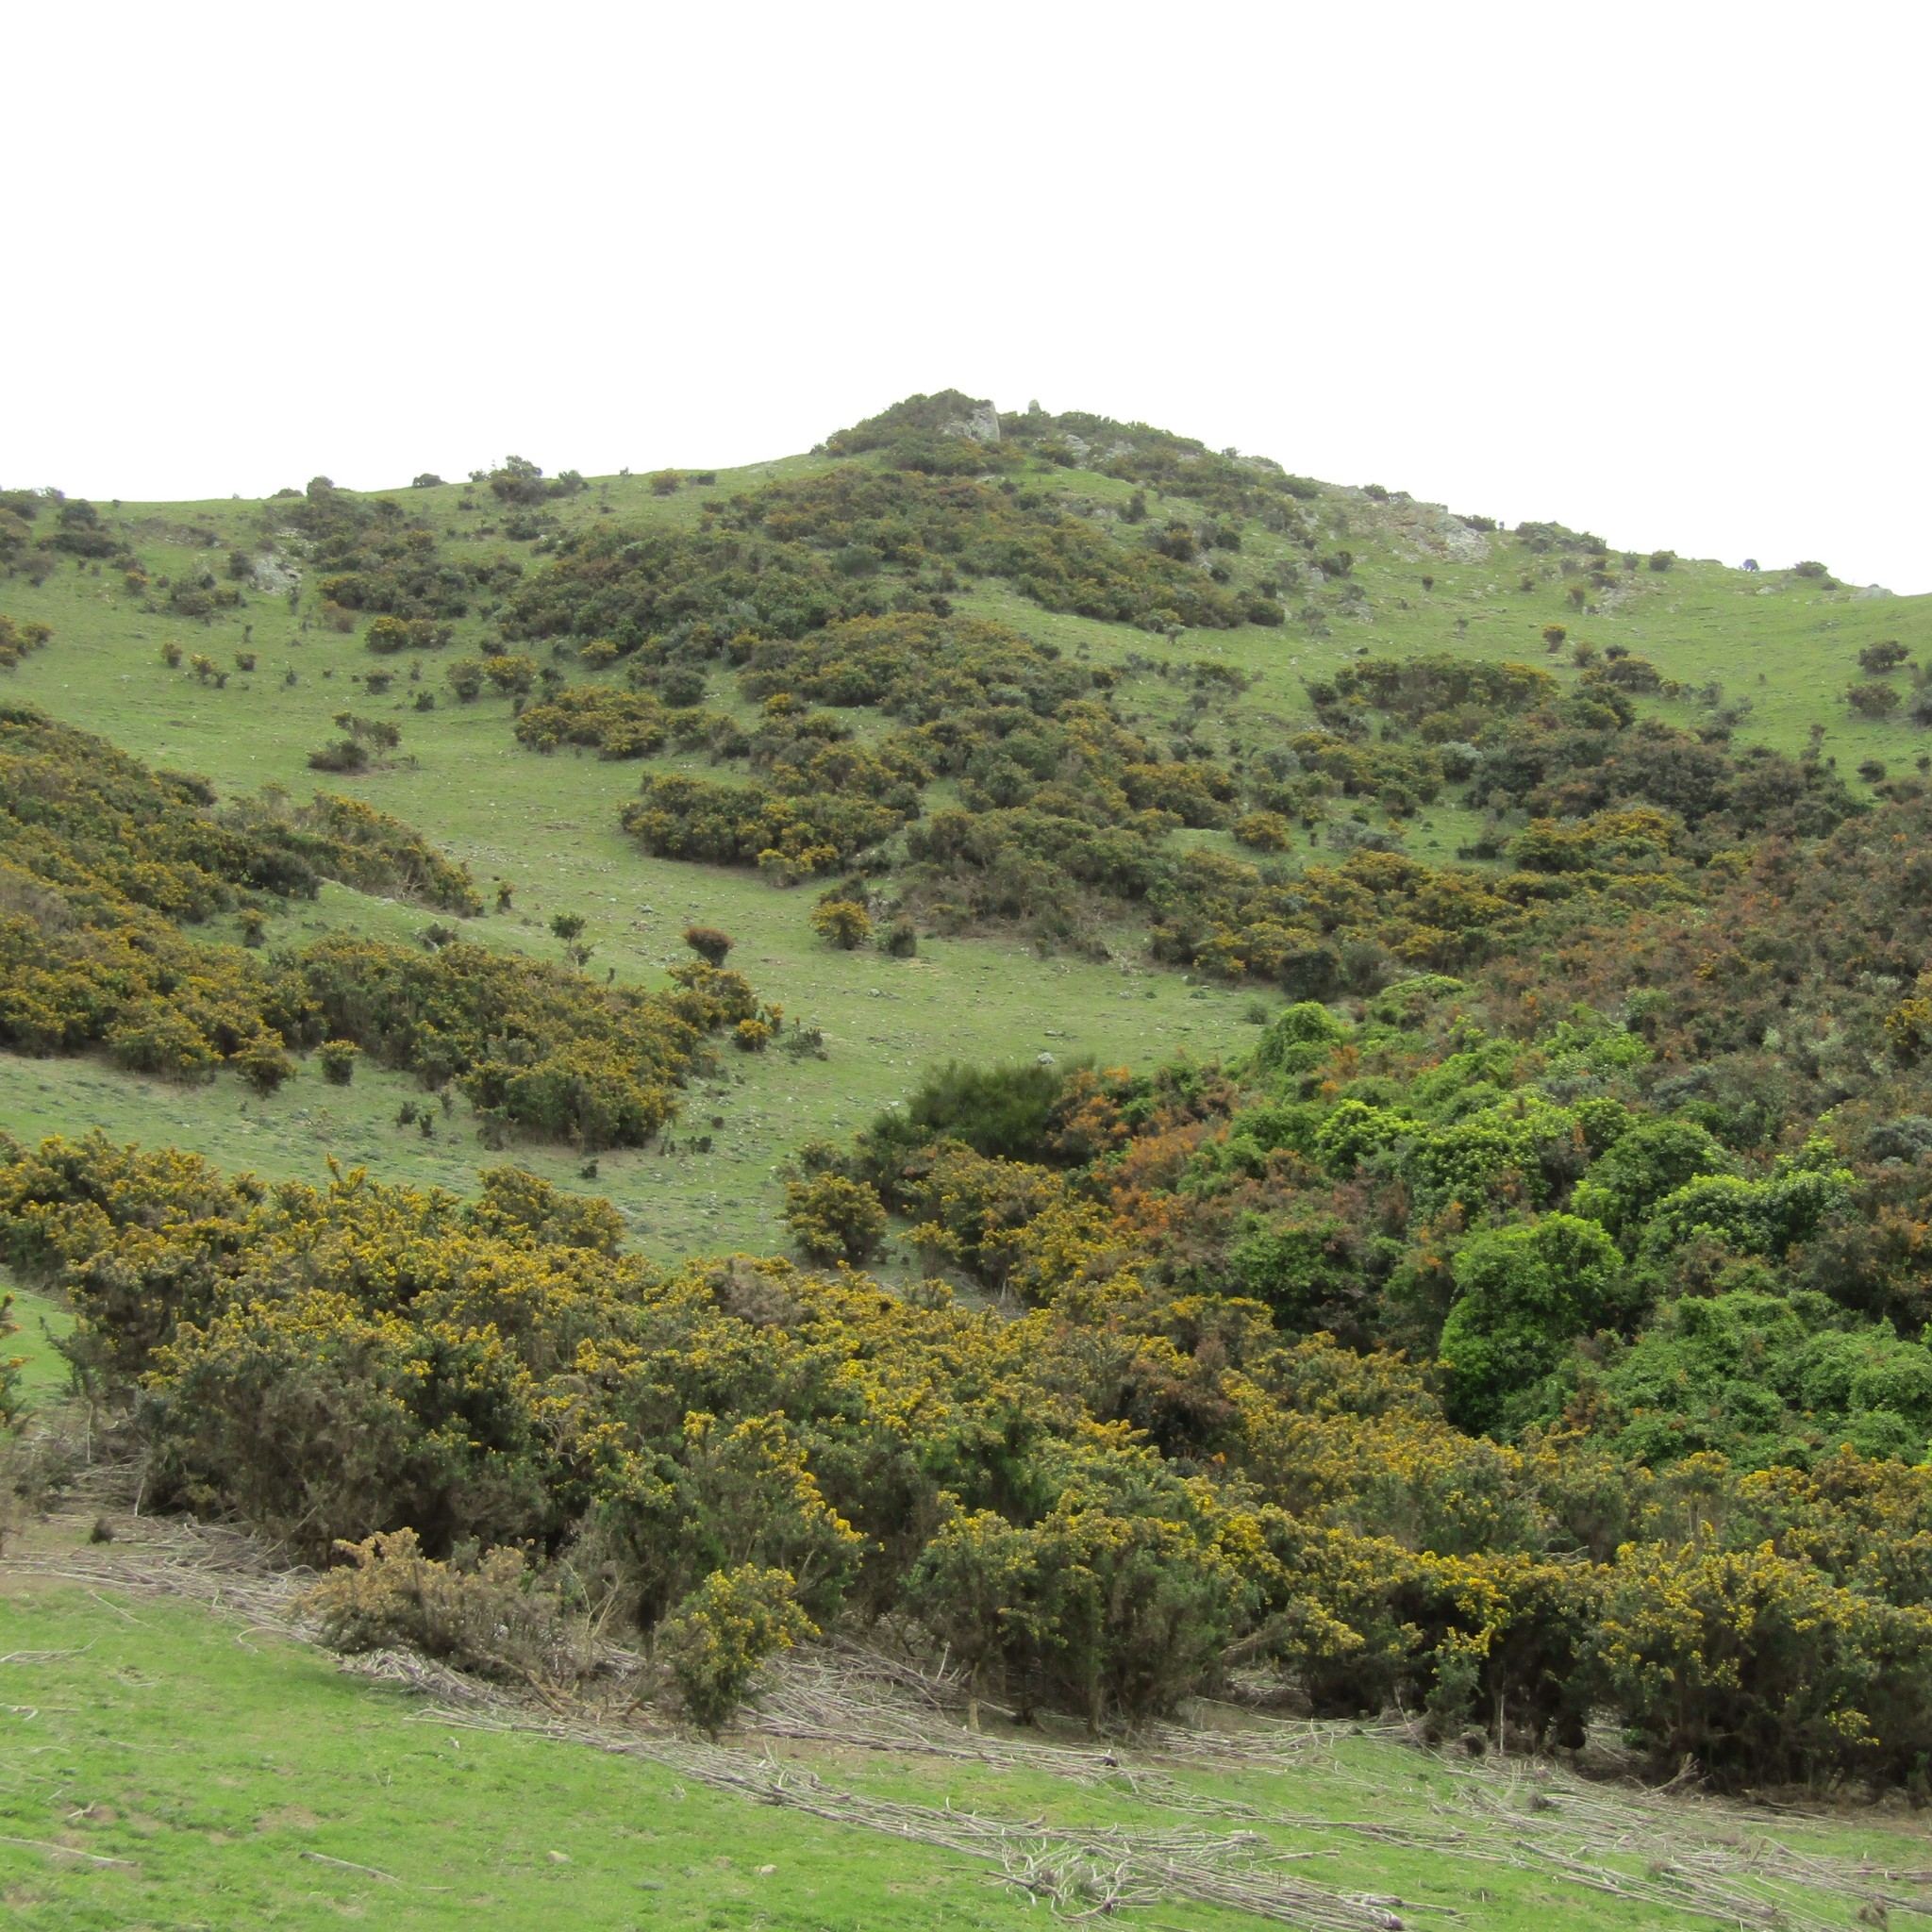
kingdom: Plantae
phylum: Tracheophyta
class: Magnoliopsida
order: Fabales
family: Fabaceae
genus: Ulex
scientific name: Ulex europaeus
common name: Common gorse
